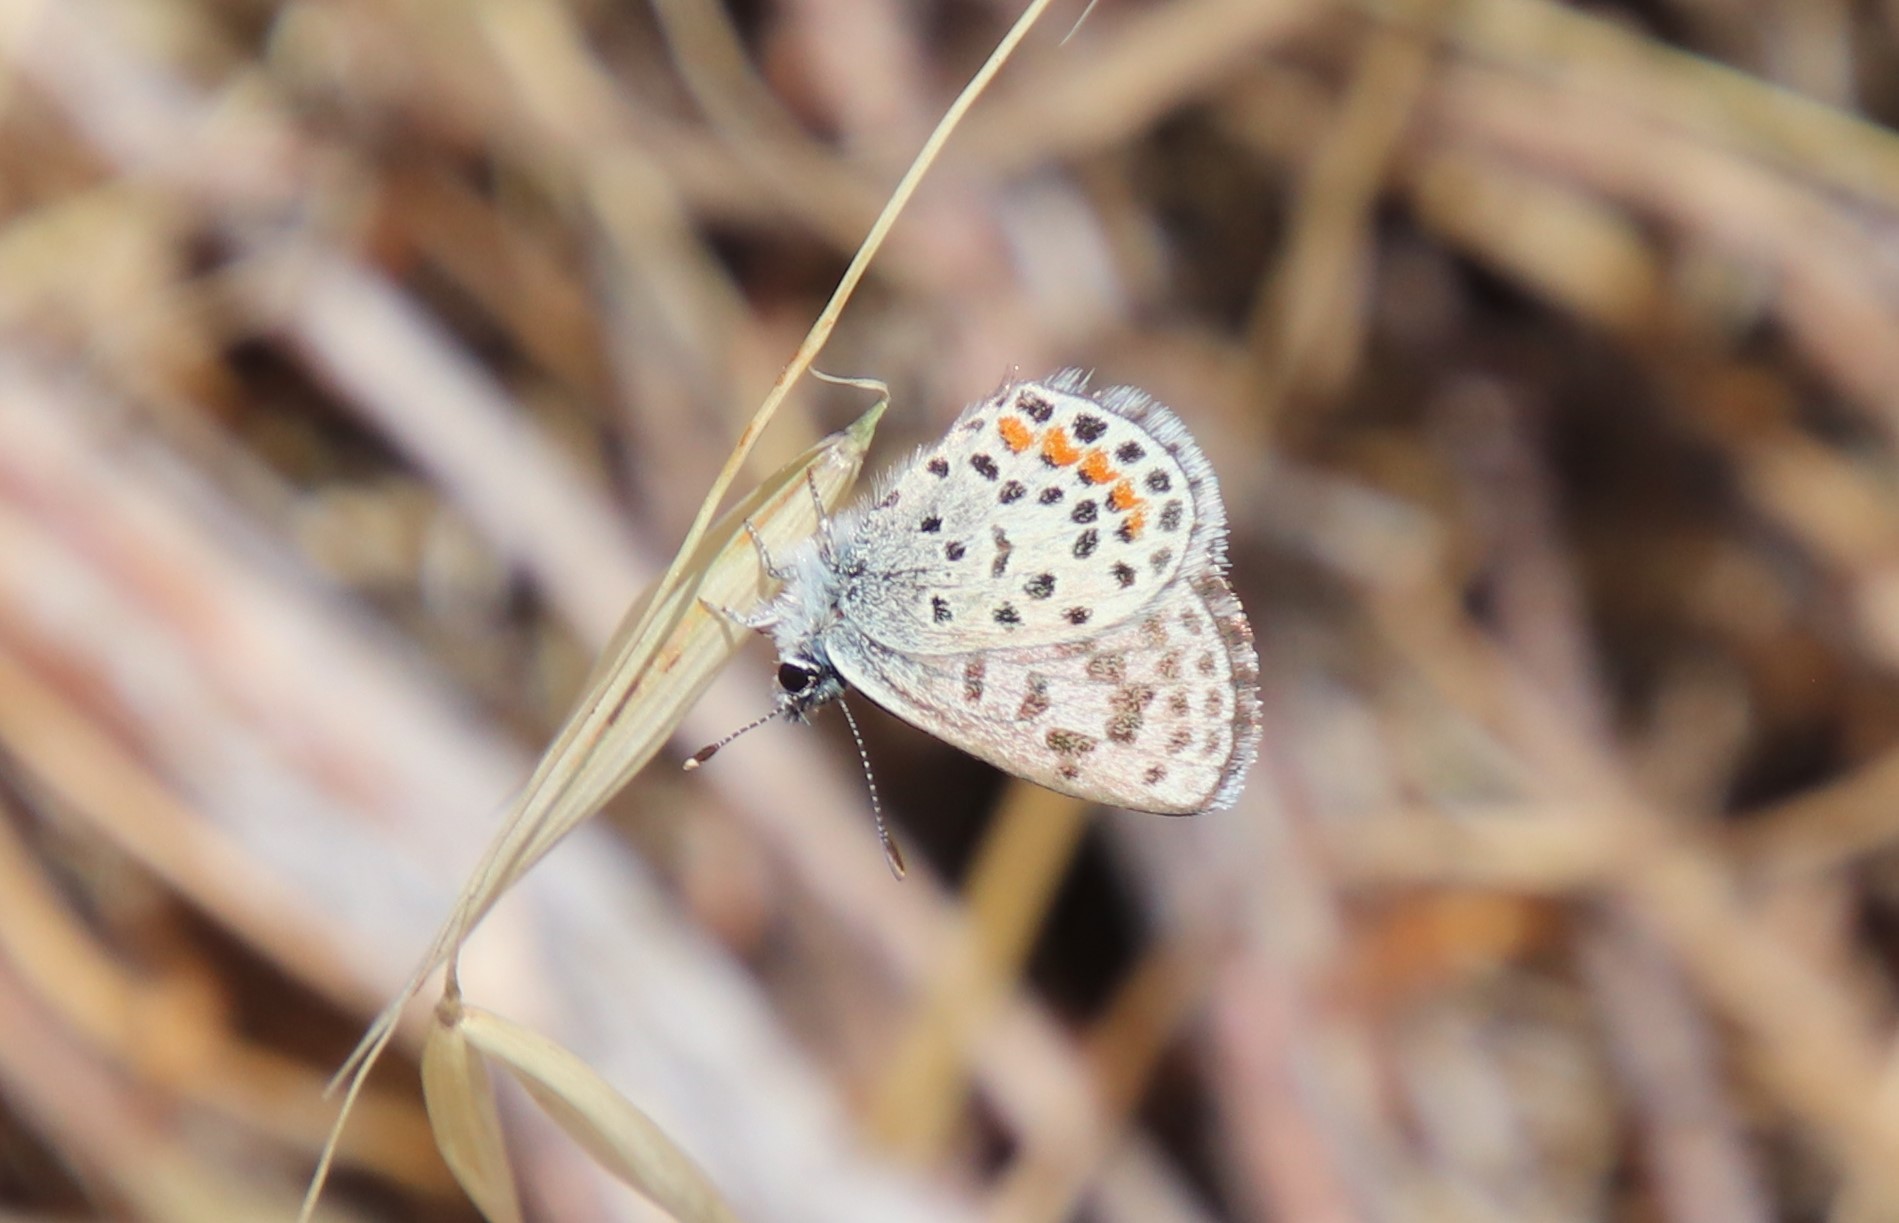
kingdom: Animalia
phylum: Arthropoda
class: Insecta
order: Lepidoptera
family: Lycaenidae
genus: Philotes
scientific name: Philotes bernardino
